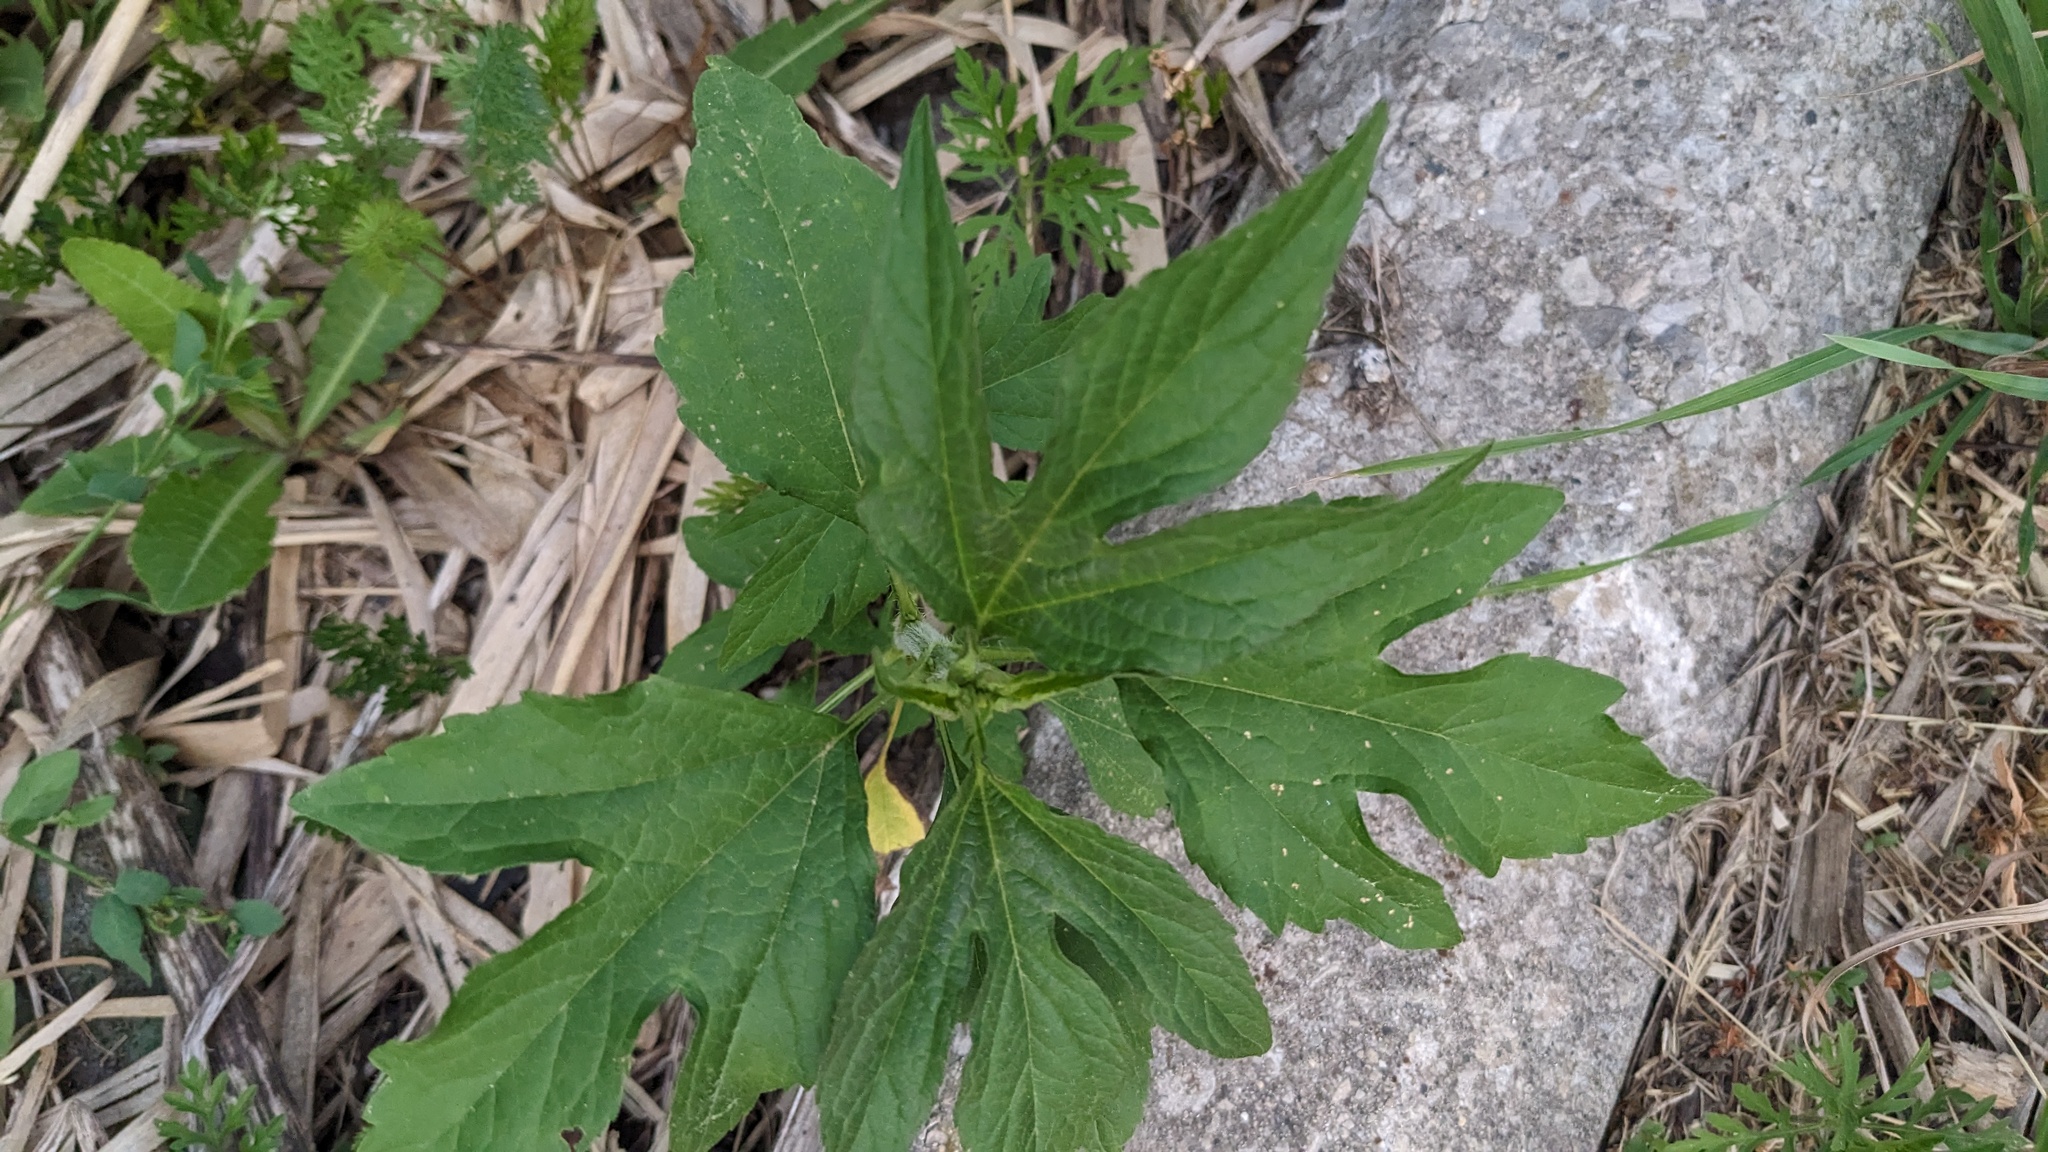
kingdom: Plantae
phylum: Tracheophyta
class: Magnoliopsida
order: Asterales
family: Asteraceae
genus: Ambrosia
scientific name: Ambrosia trifida
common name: Giant ragweed
